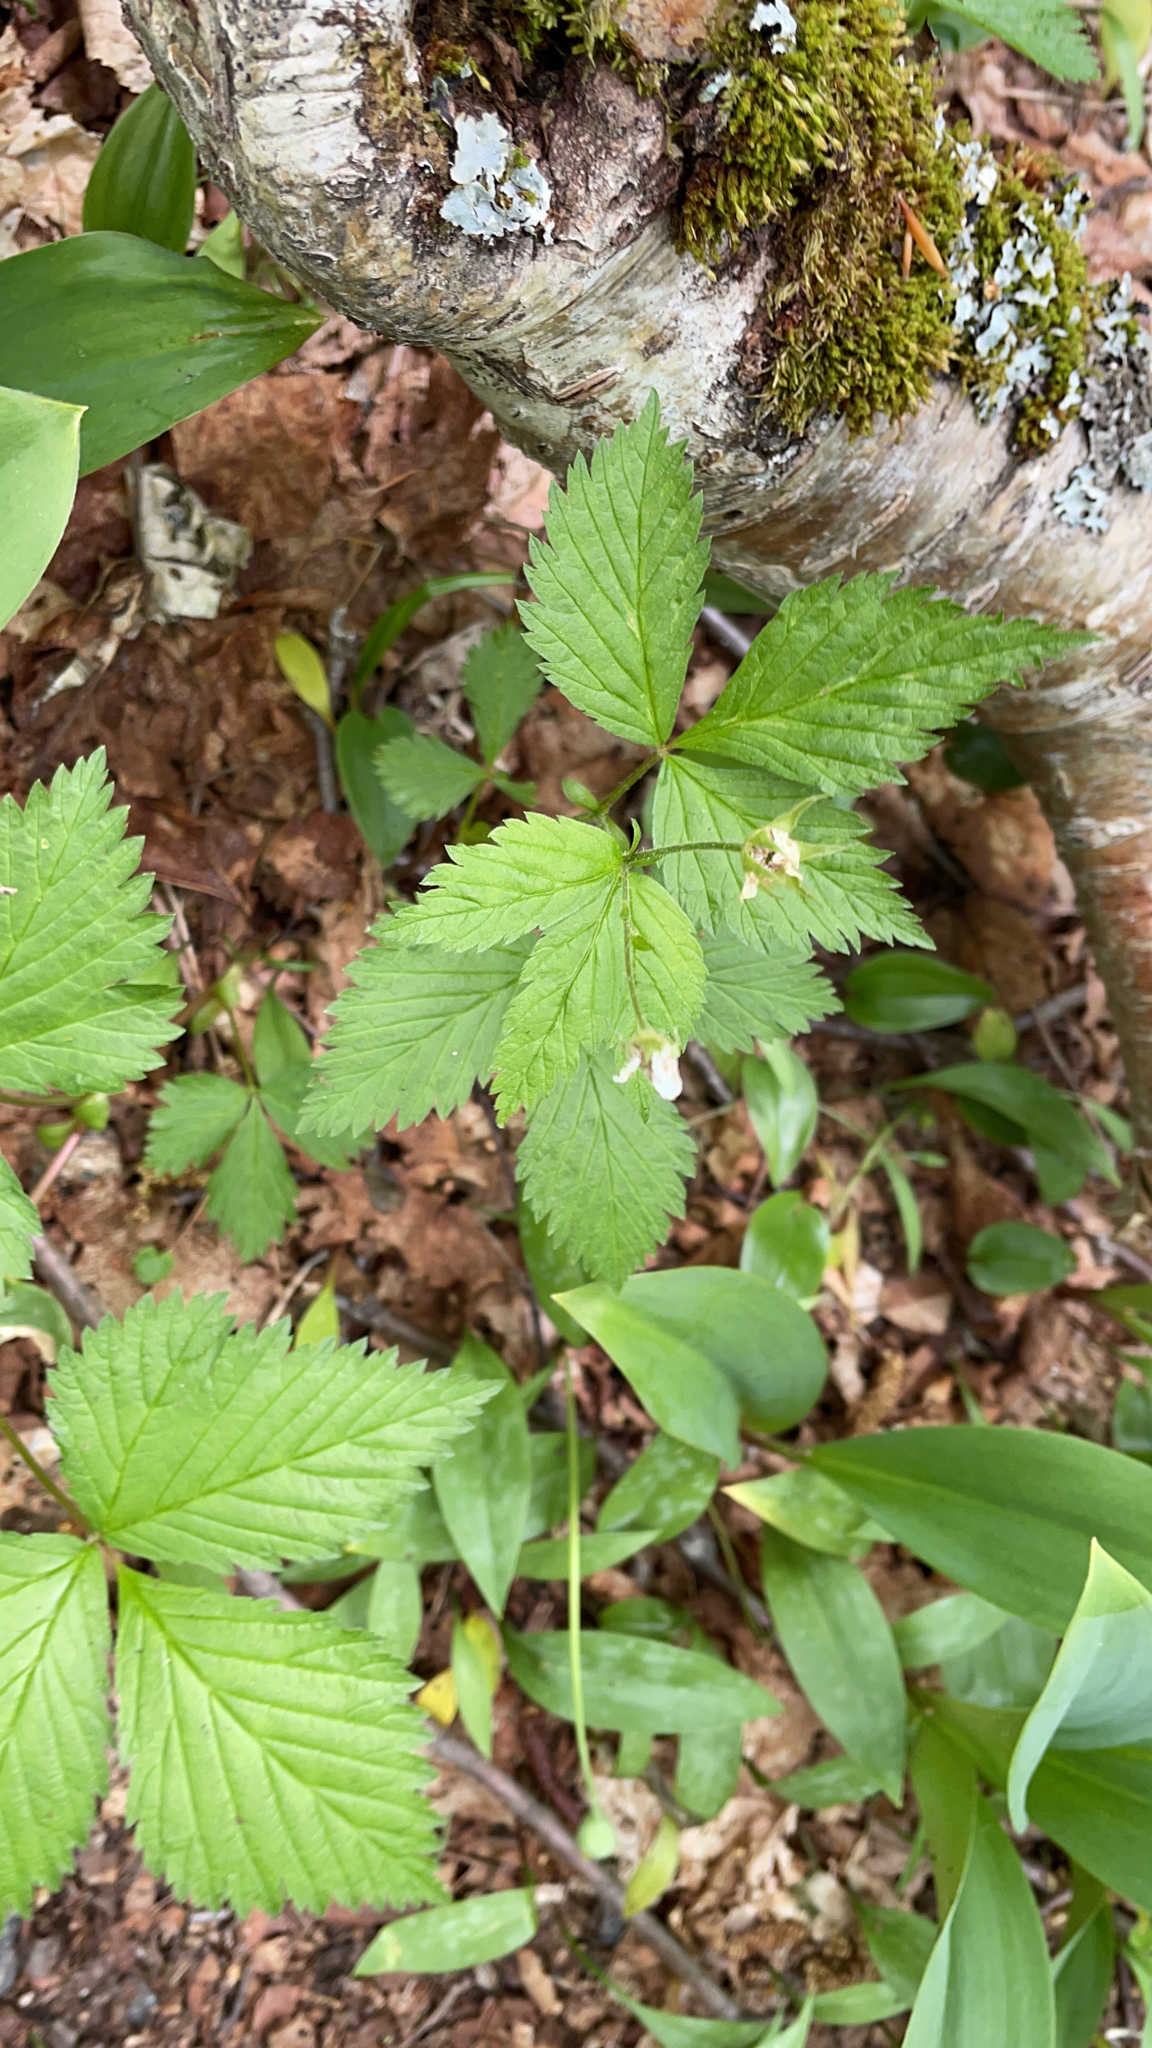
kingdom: Plantae
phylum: Tracheophyta
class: Magnoliopsida
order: Rosales
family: Rosaceae
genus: Rubus
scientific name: Rubus pubescens
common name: Dwarf raspberry
